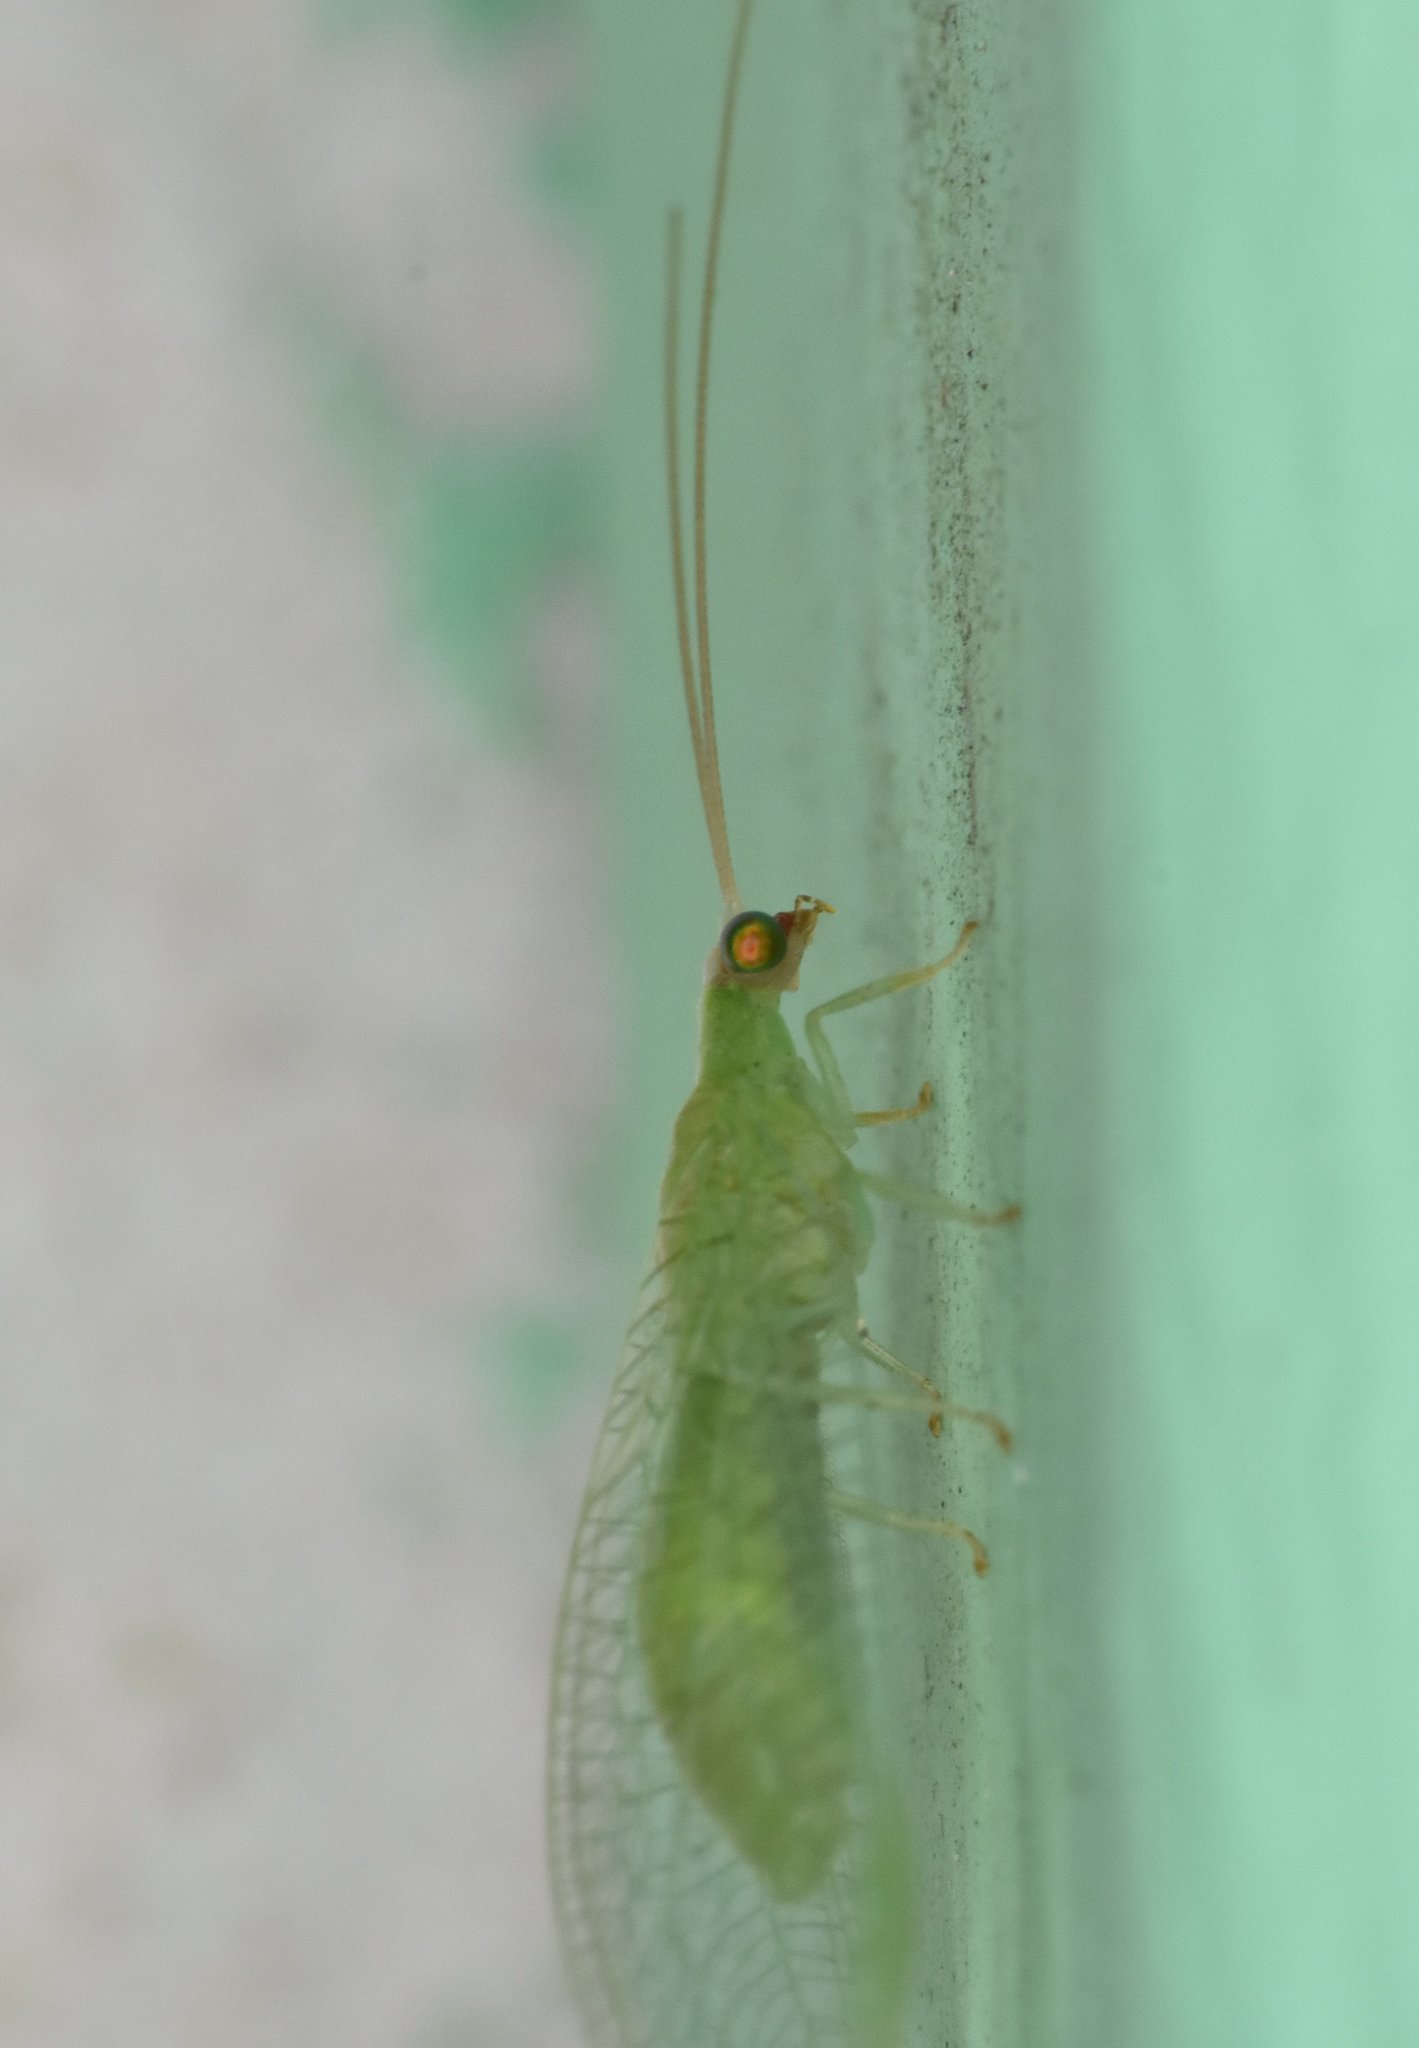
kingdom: Animalia
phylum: Arthropoda
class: Insecta
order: Neuroptera
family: Chrysopidae
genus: Chrysopodes
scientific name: Chrysopodes collaris
